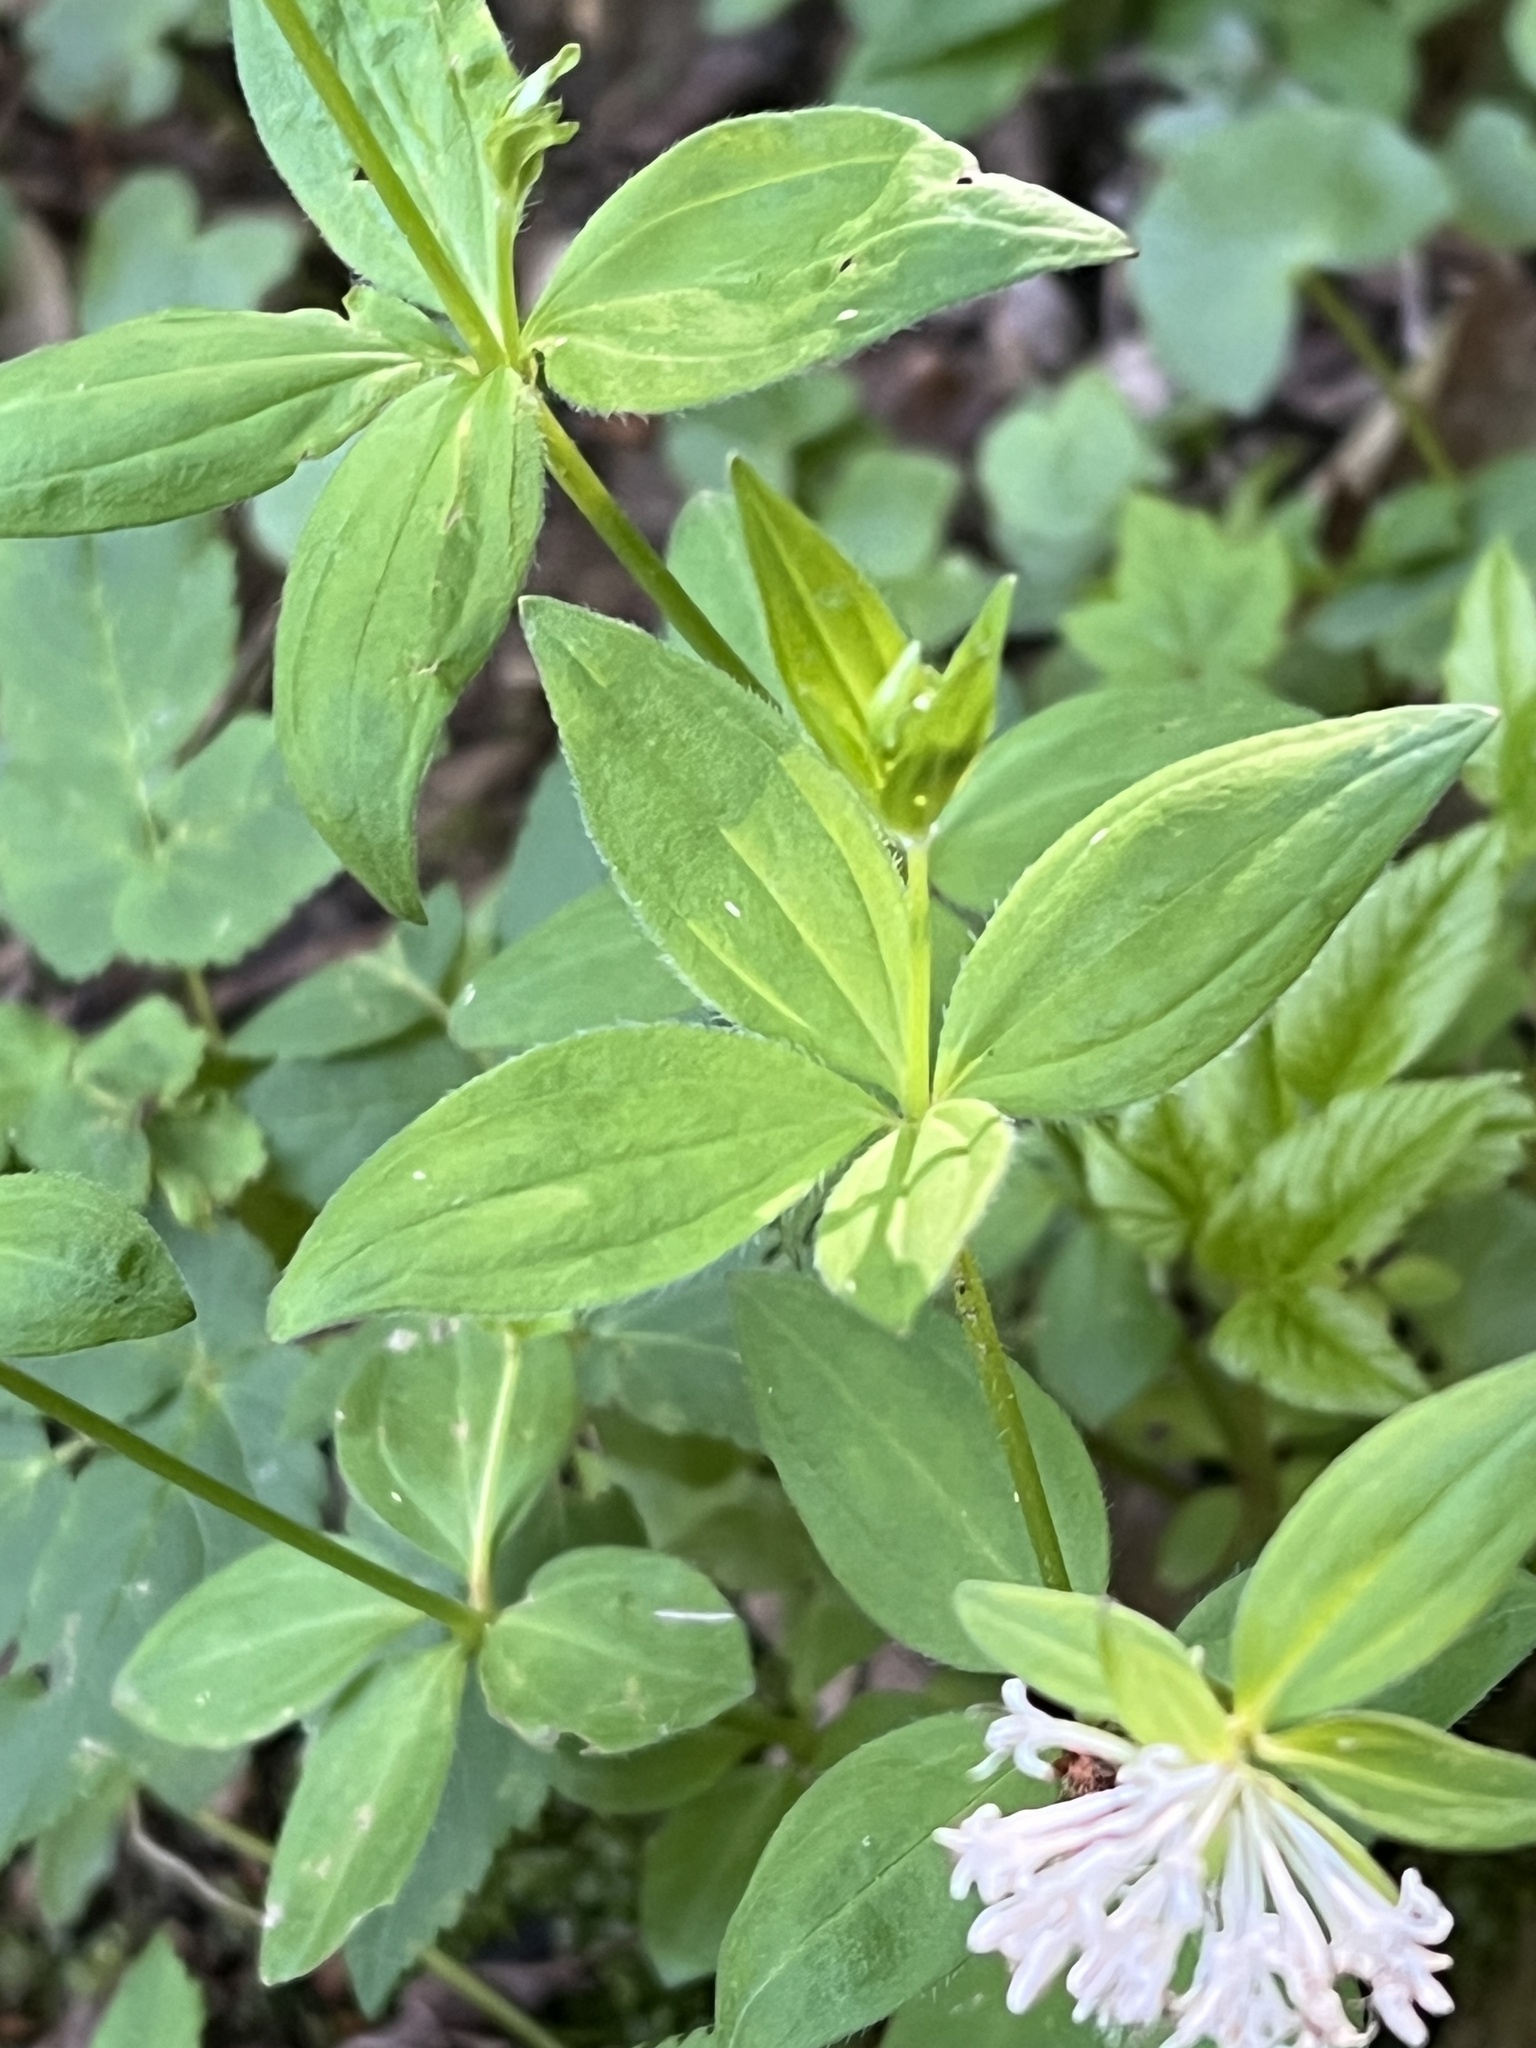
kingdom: Plantae
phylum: Tracheophyta
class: Magnoliopsida
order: Gentianales
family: Rubiaceae
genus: Asperula
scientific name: Asperula taurina
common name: Pink woodruff
